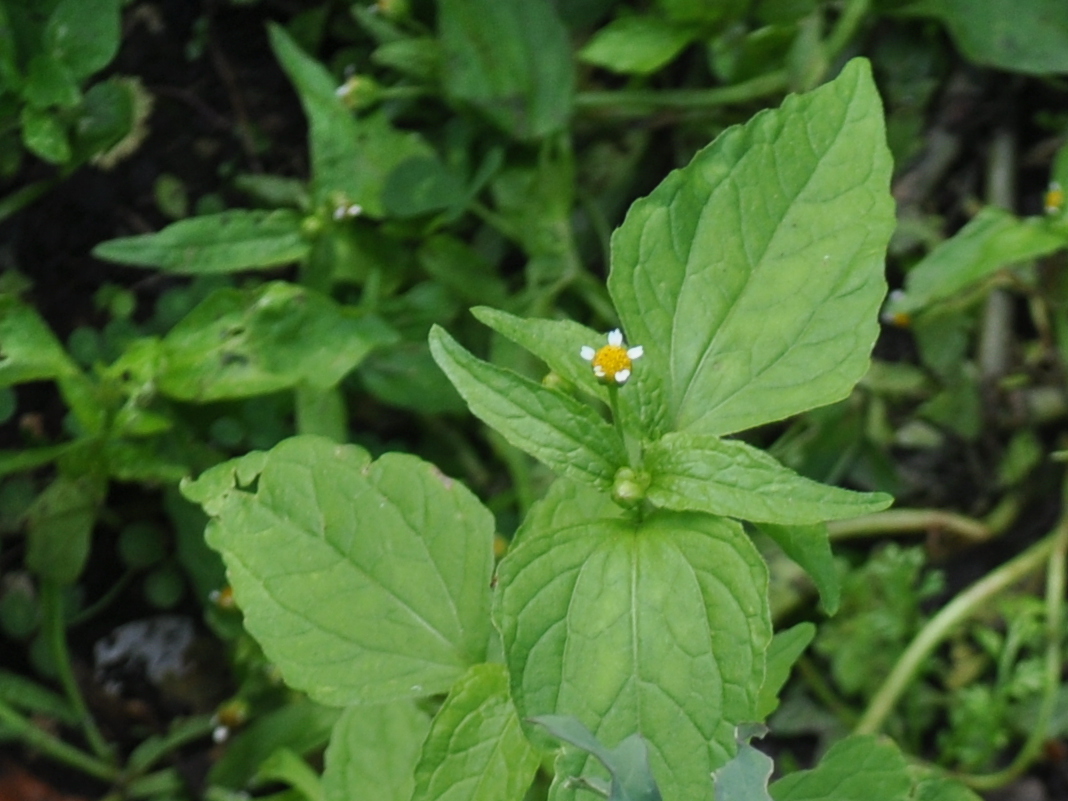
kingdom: Plantae
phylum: Tracheophyta
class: Magnoliopsida
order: Asterales
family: Asteraceae
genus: Galinsoga
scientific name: Galinsoga parviflora
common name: Gallant soldier
